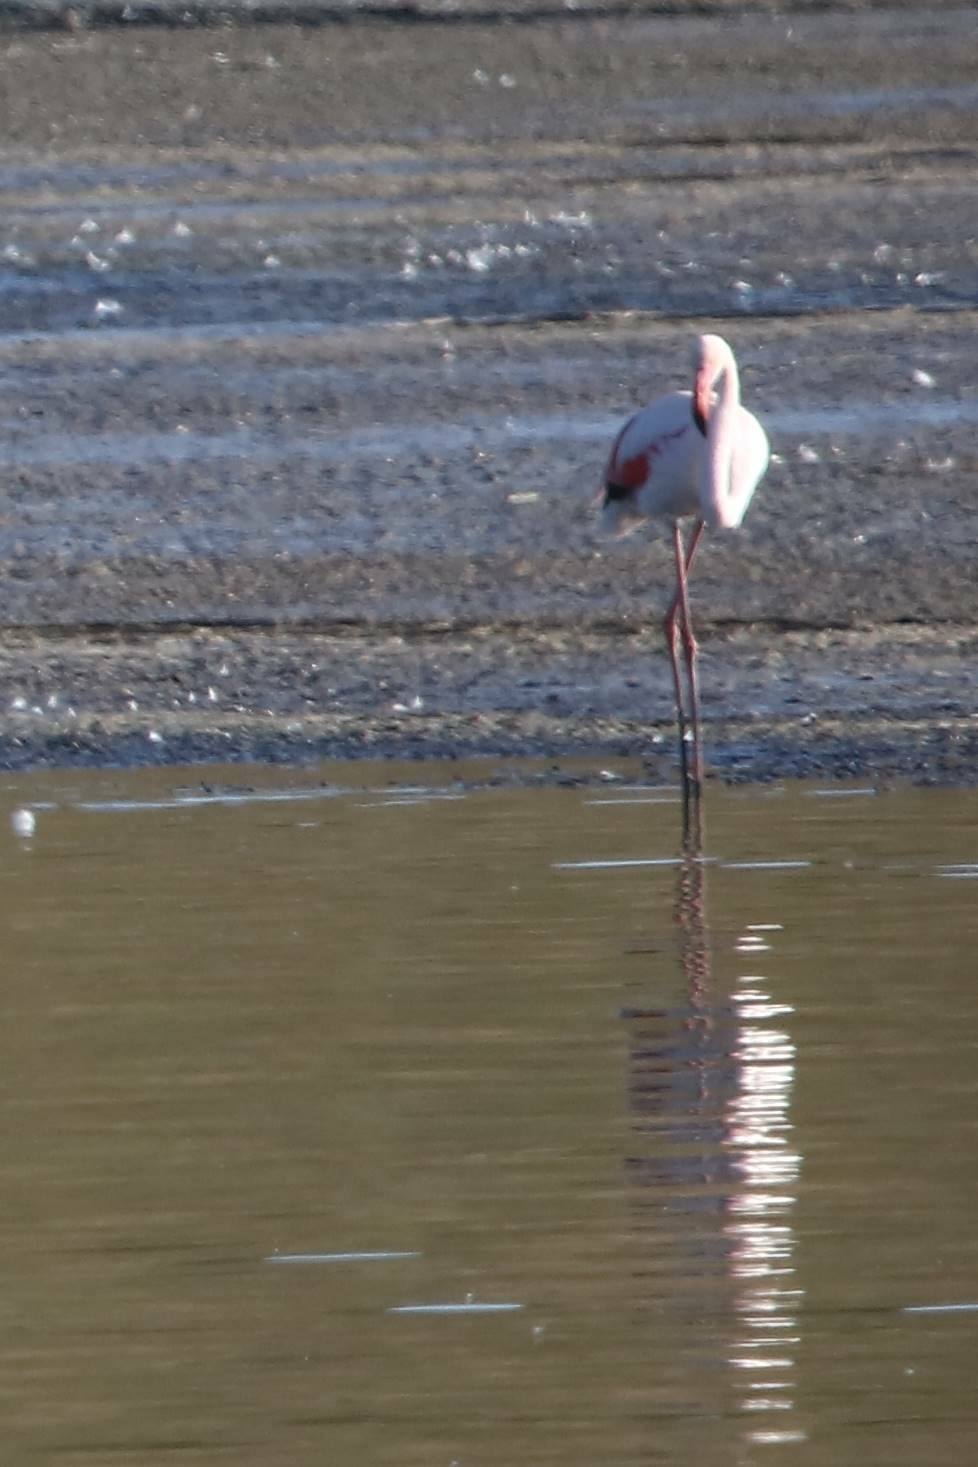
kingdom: Animalia
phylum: Chordata
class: Aves
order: Phoenicopteriformes
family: Phoenicopteridae
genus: Phoenicopterus
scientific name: Phoenicopterus roseus
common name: Greater flamingo
